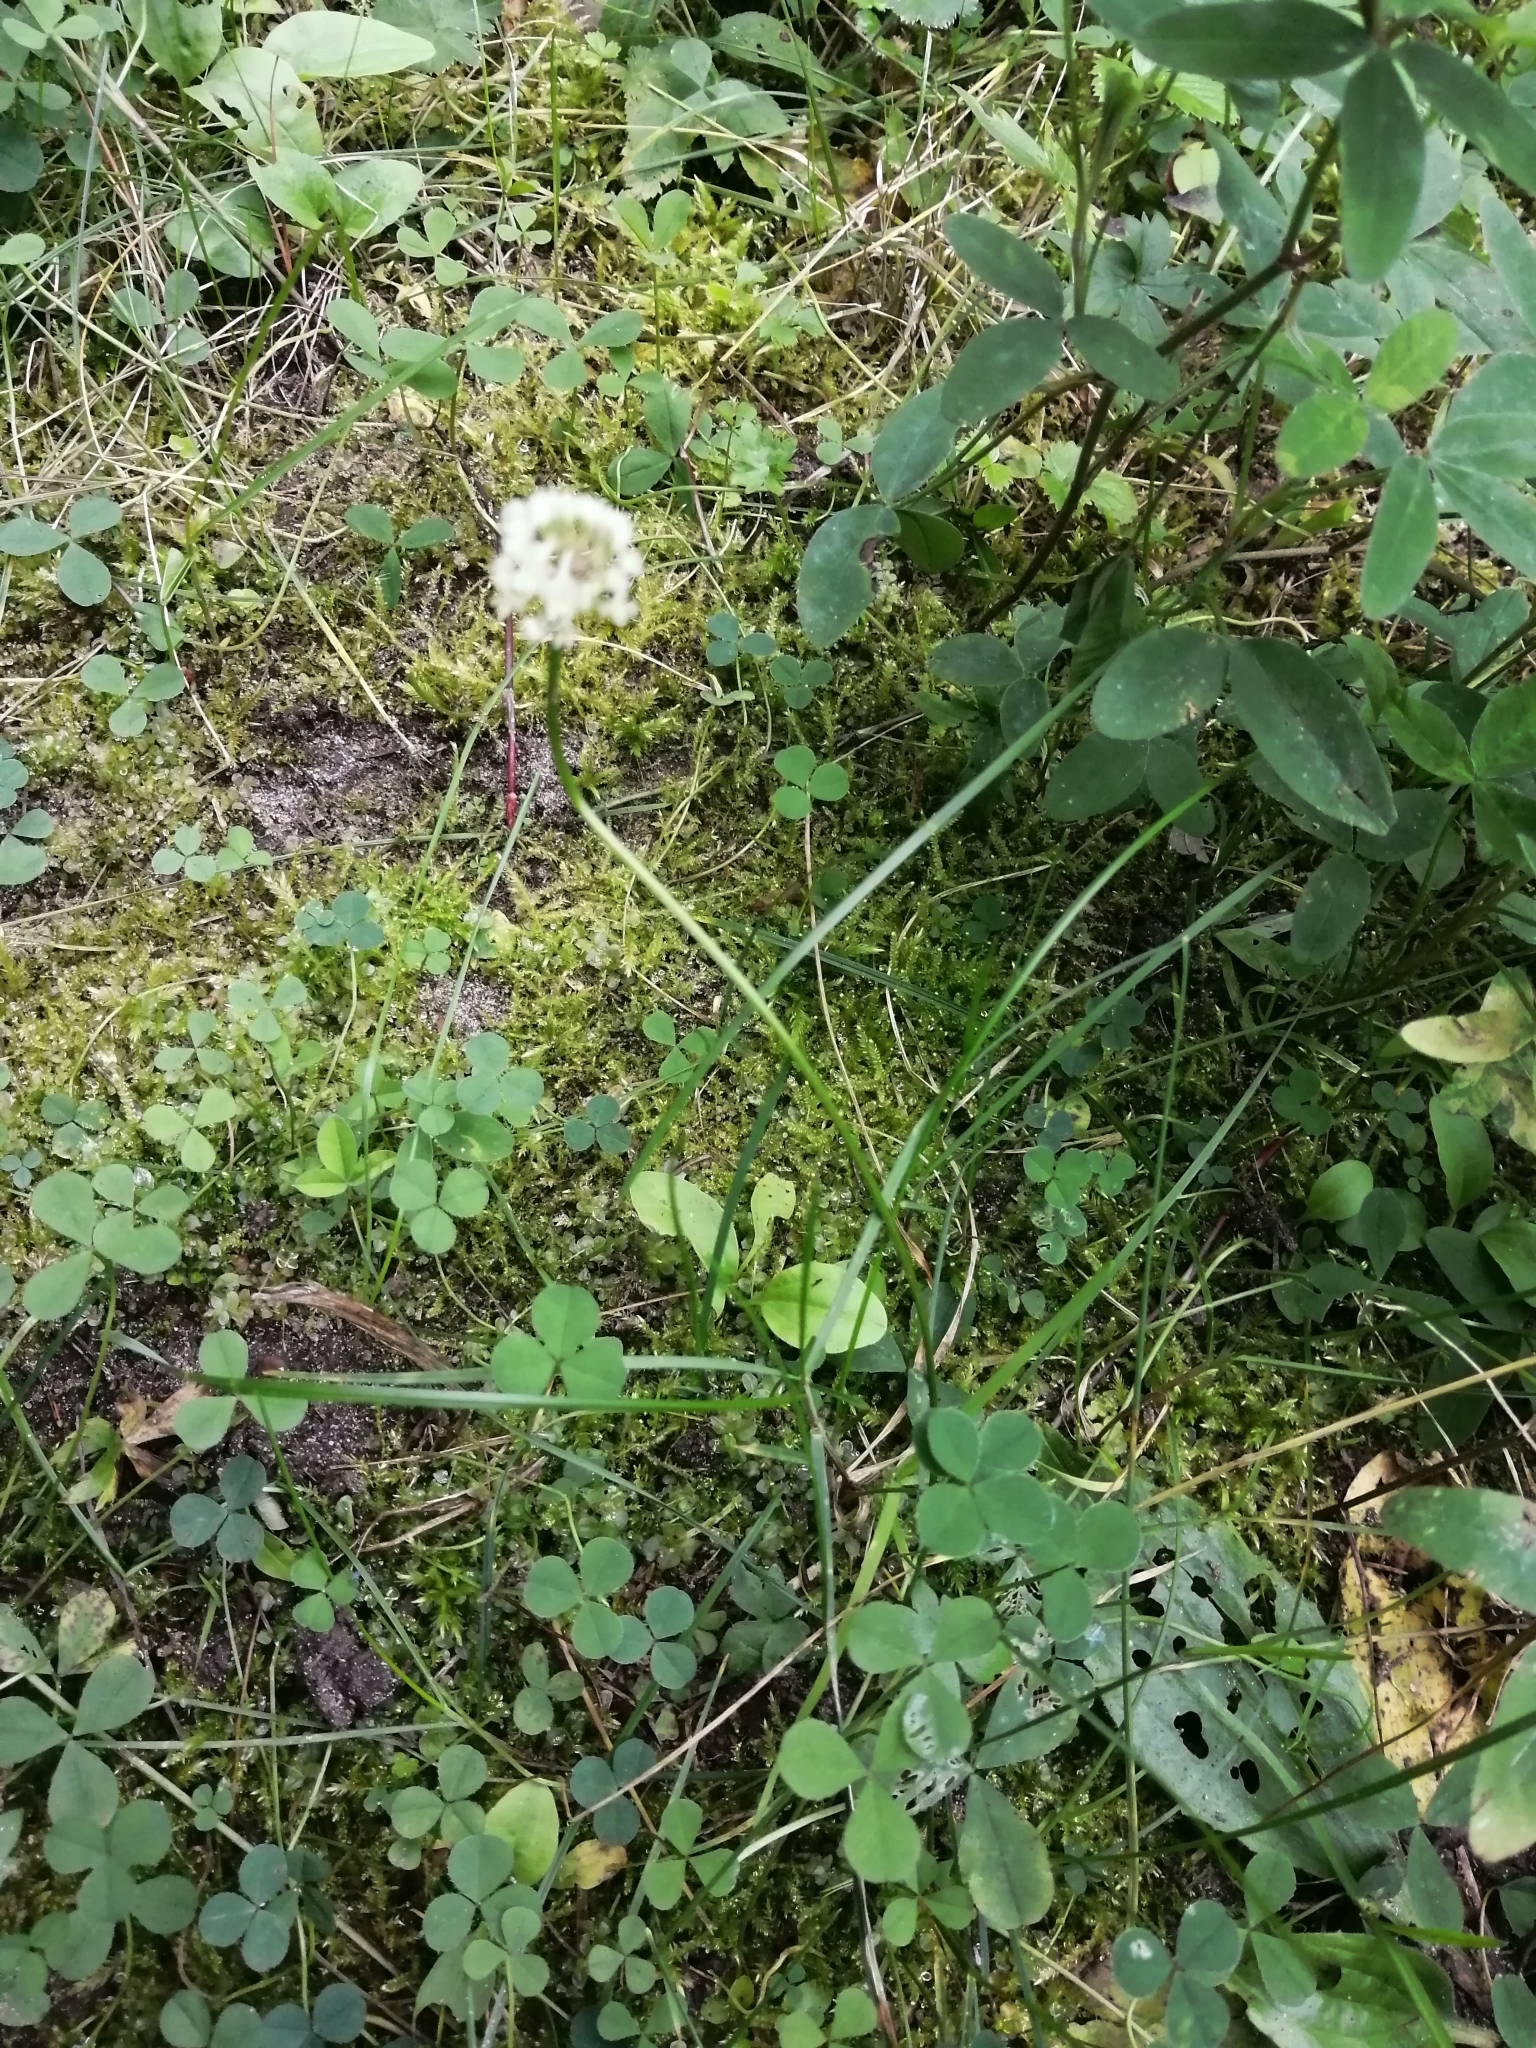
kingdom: Plantae
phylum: Tracheophyta
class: Magnoliopsida
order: Fabales
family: Fabaceae
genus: Trifolium
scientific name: Trifolium repens
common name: White clover
